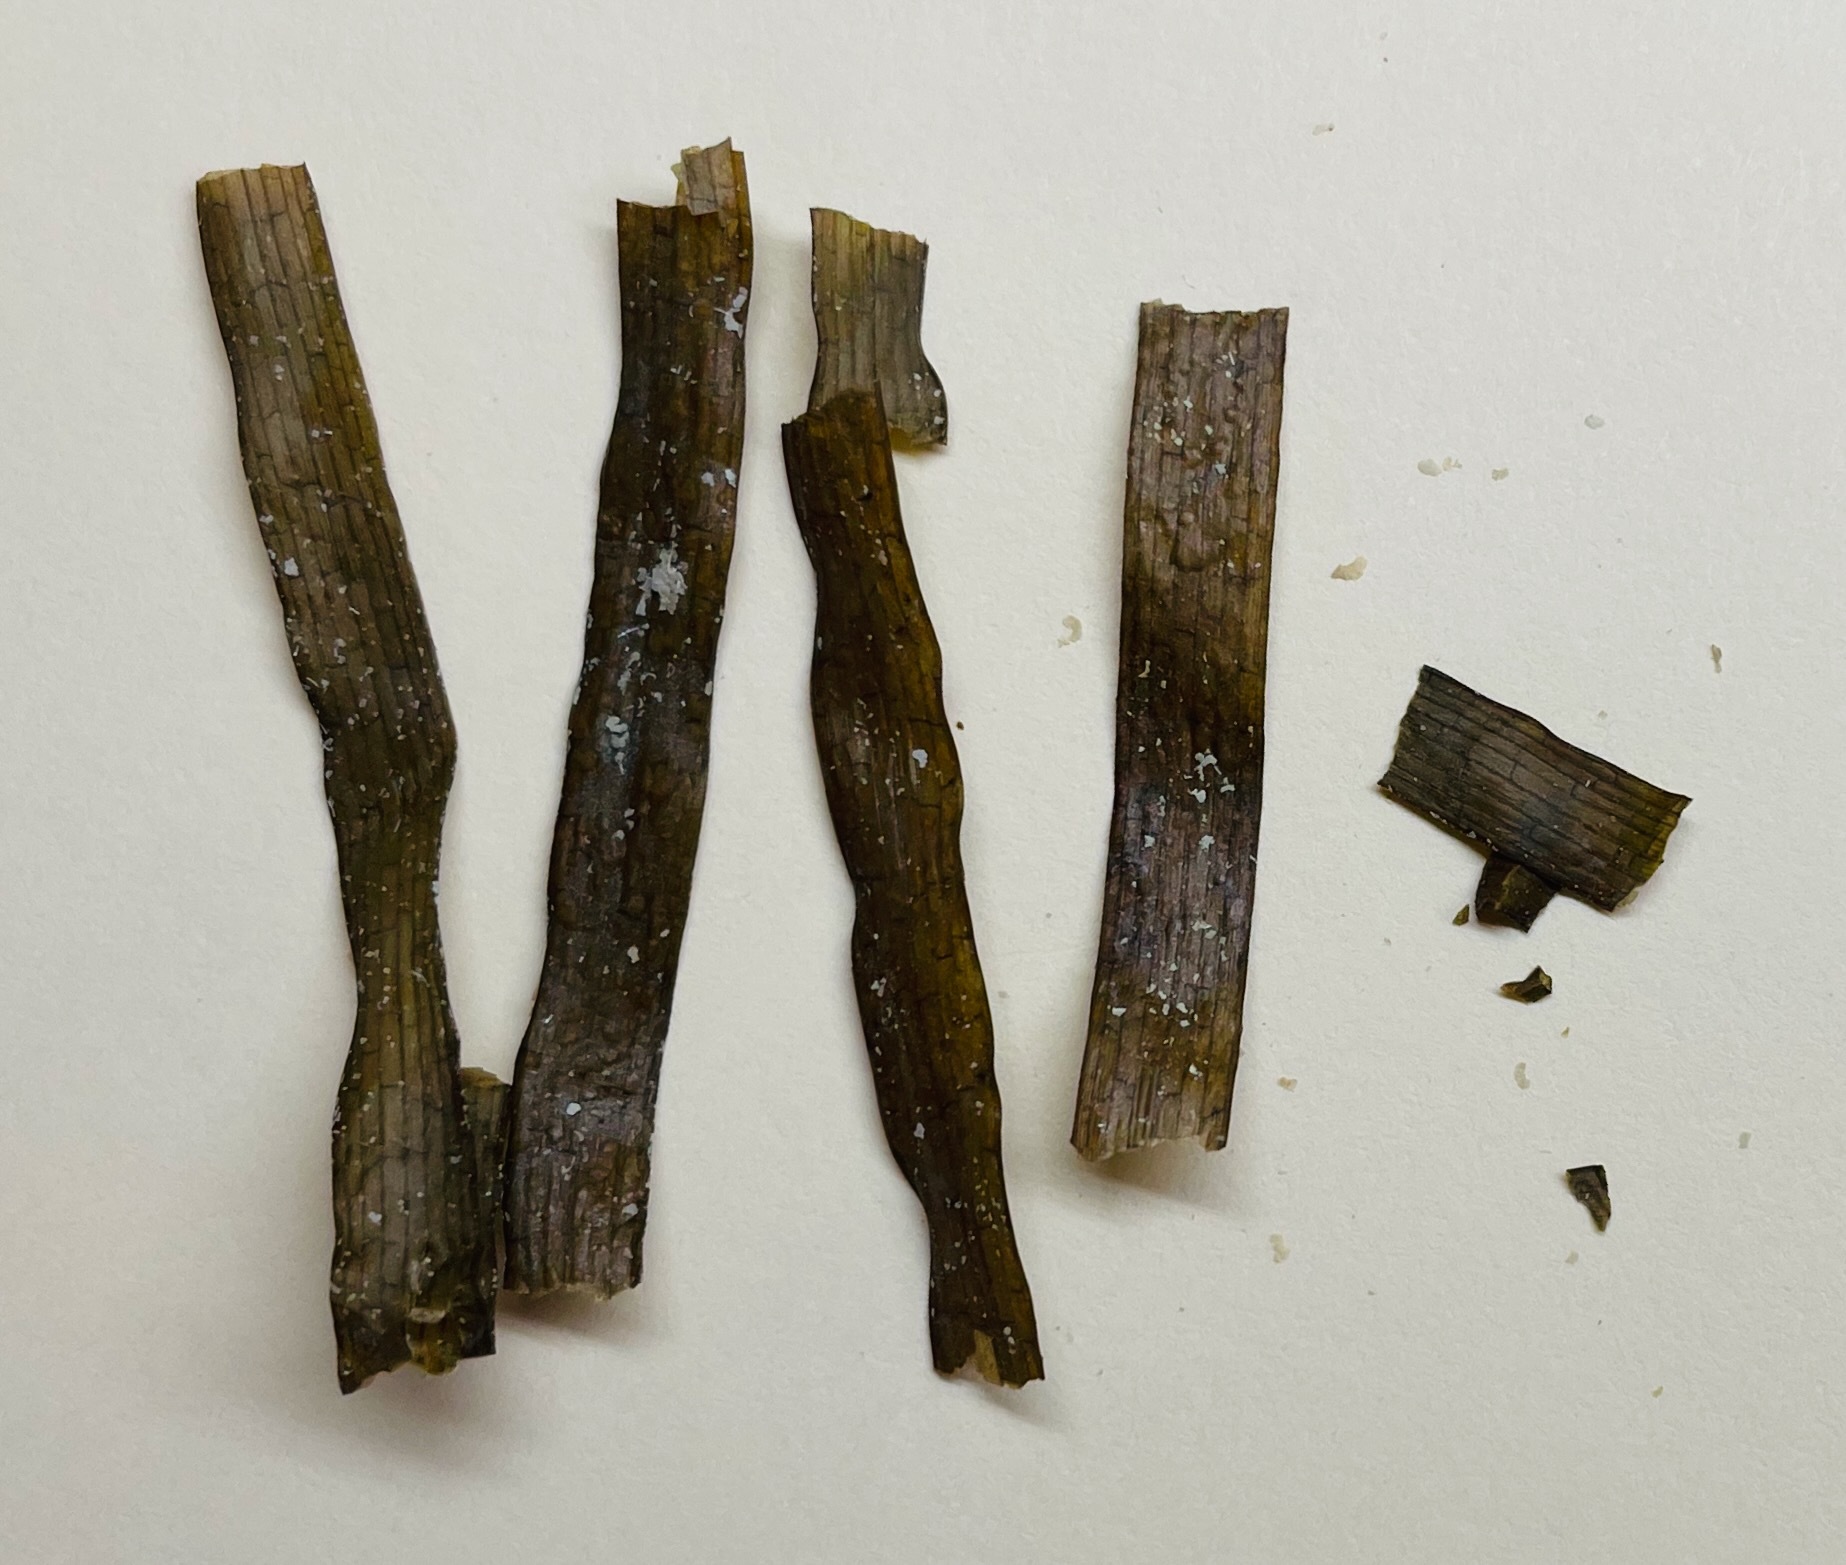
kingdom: Plantae
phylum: Tracheophyta
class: Liliopsida
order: Alismatales
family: Hydrocharitaceae
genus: Thalassia
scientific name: Thalassia testudinum
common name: Species code: tt
